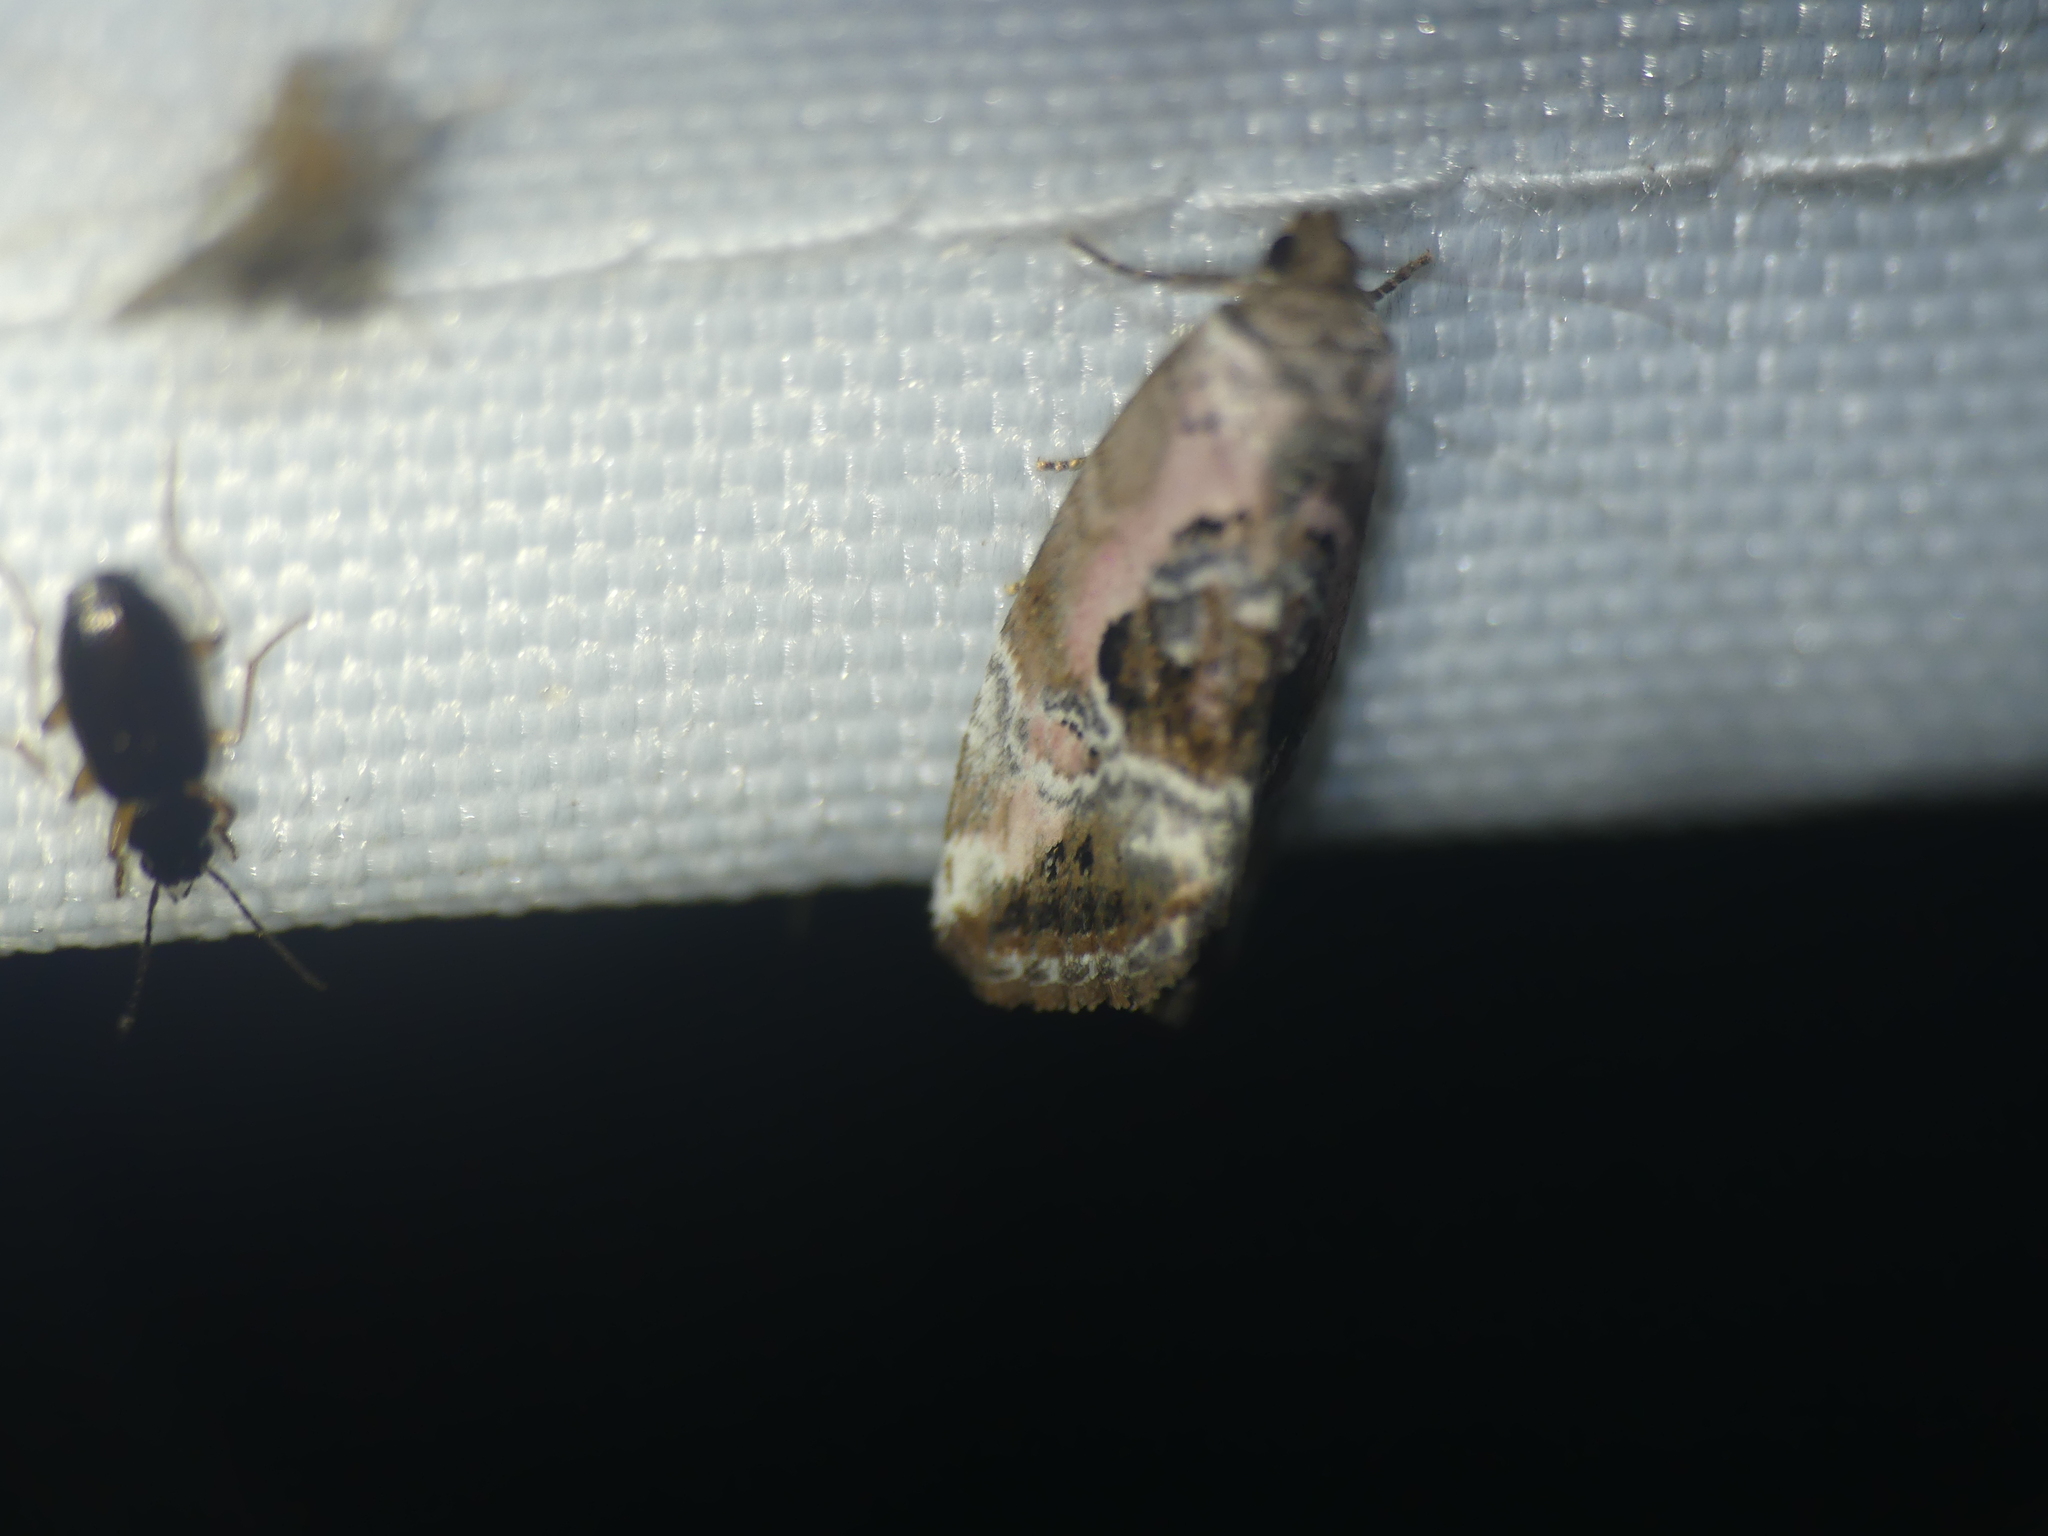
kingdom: Animalia
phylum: Arthropoda
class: Insecta
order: Lepidoptera
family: Noctuidae
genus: Elaphria
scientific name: Elaphria venustula
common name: Rosy marbled
